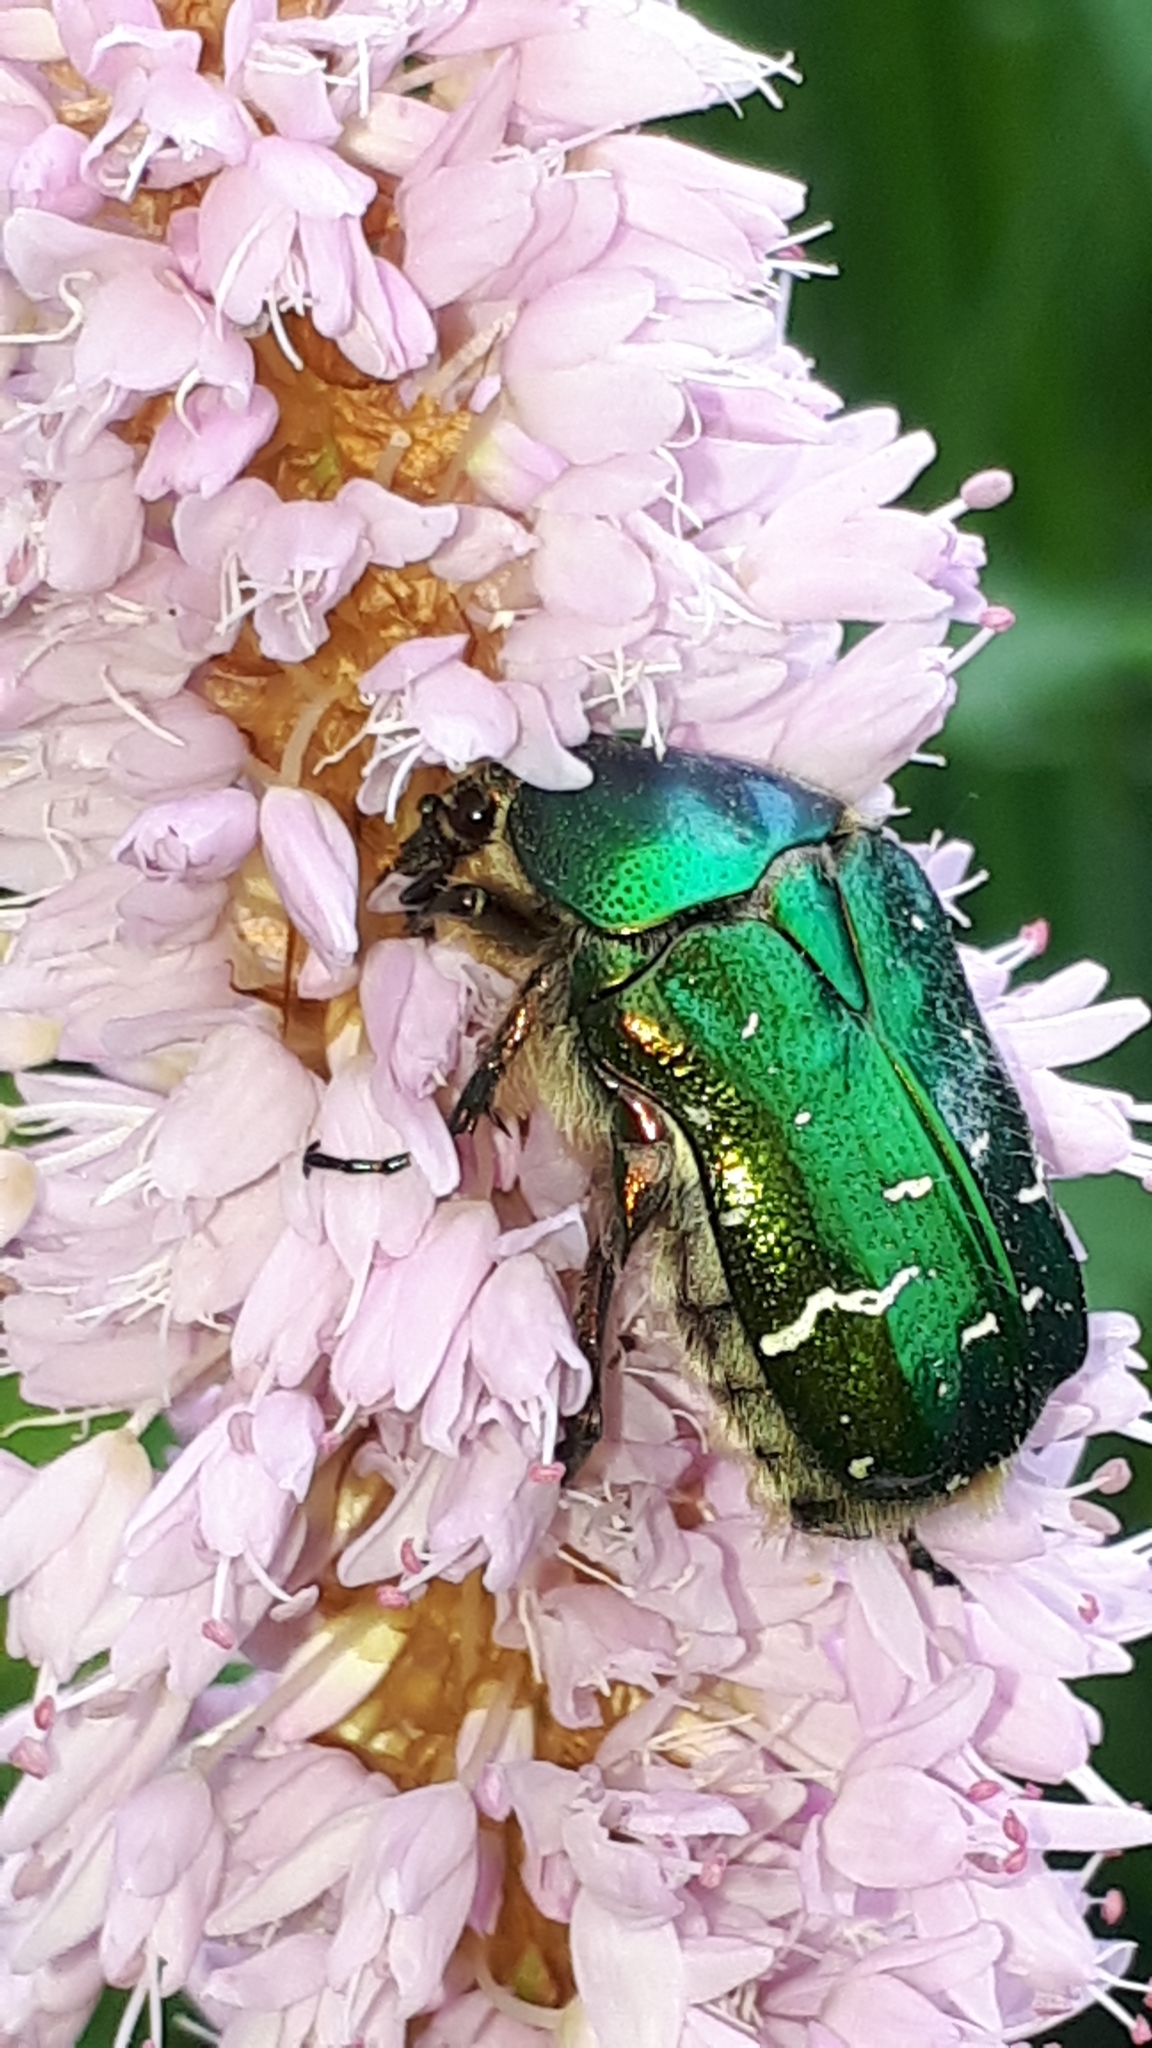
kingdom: Animalia
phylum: Arthropoda
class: Insecta
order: Coleoptera
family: Scarabaeidae
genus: Cetonia
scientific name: Cetonia aurata
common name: Rose chafer
